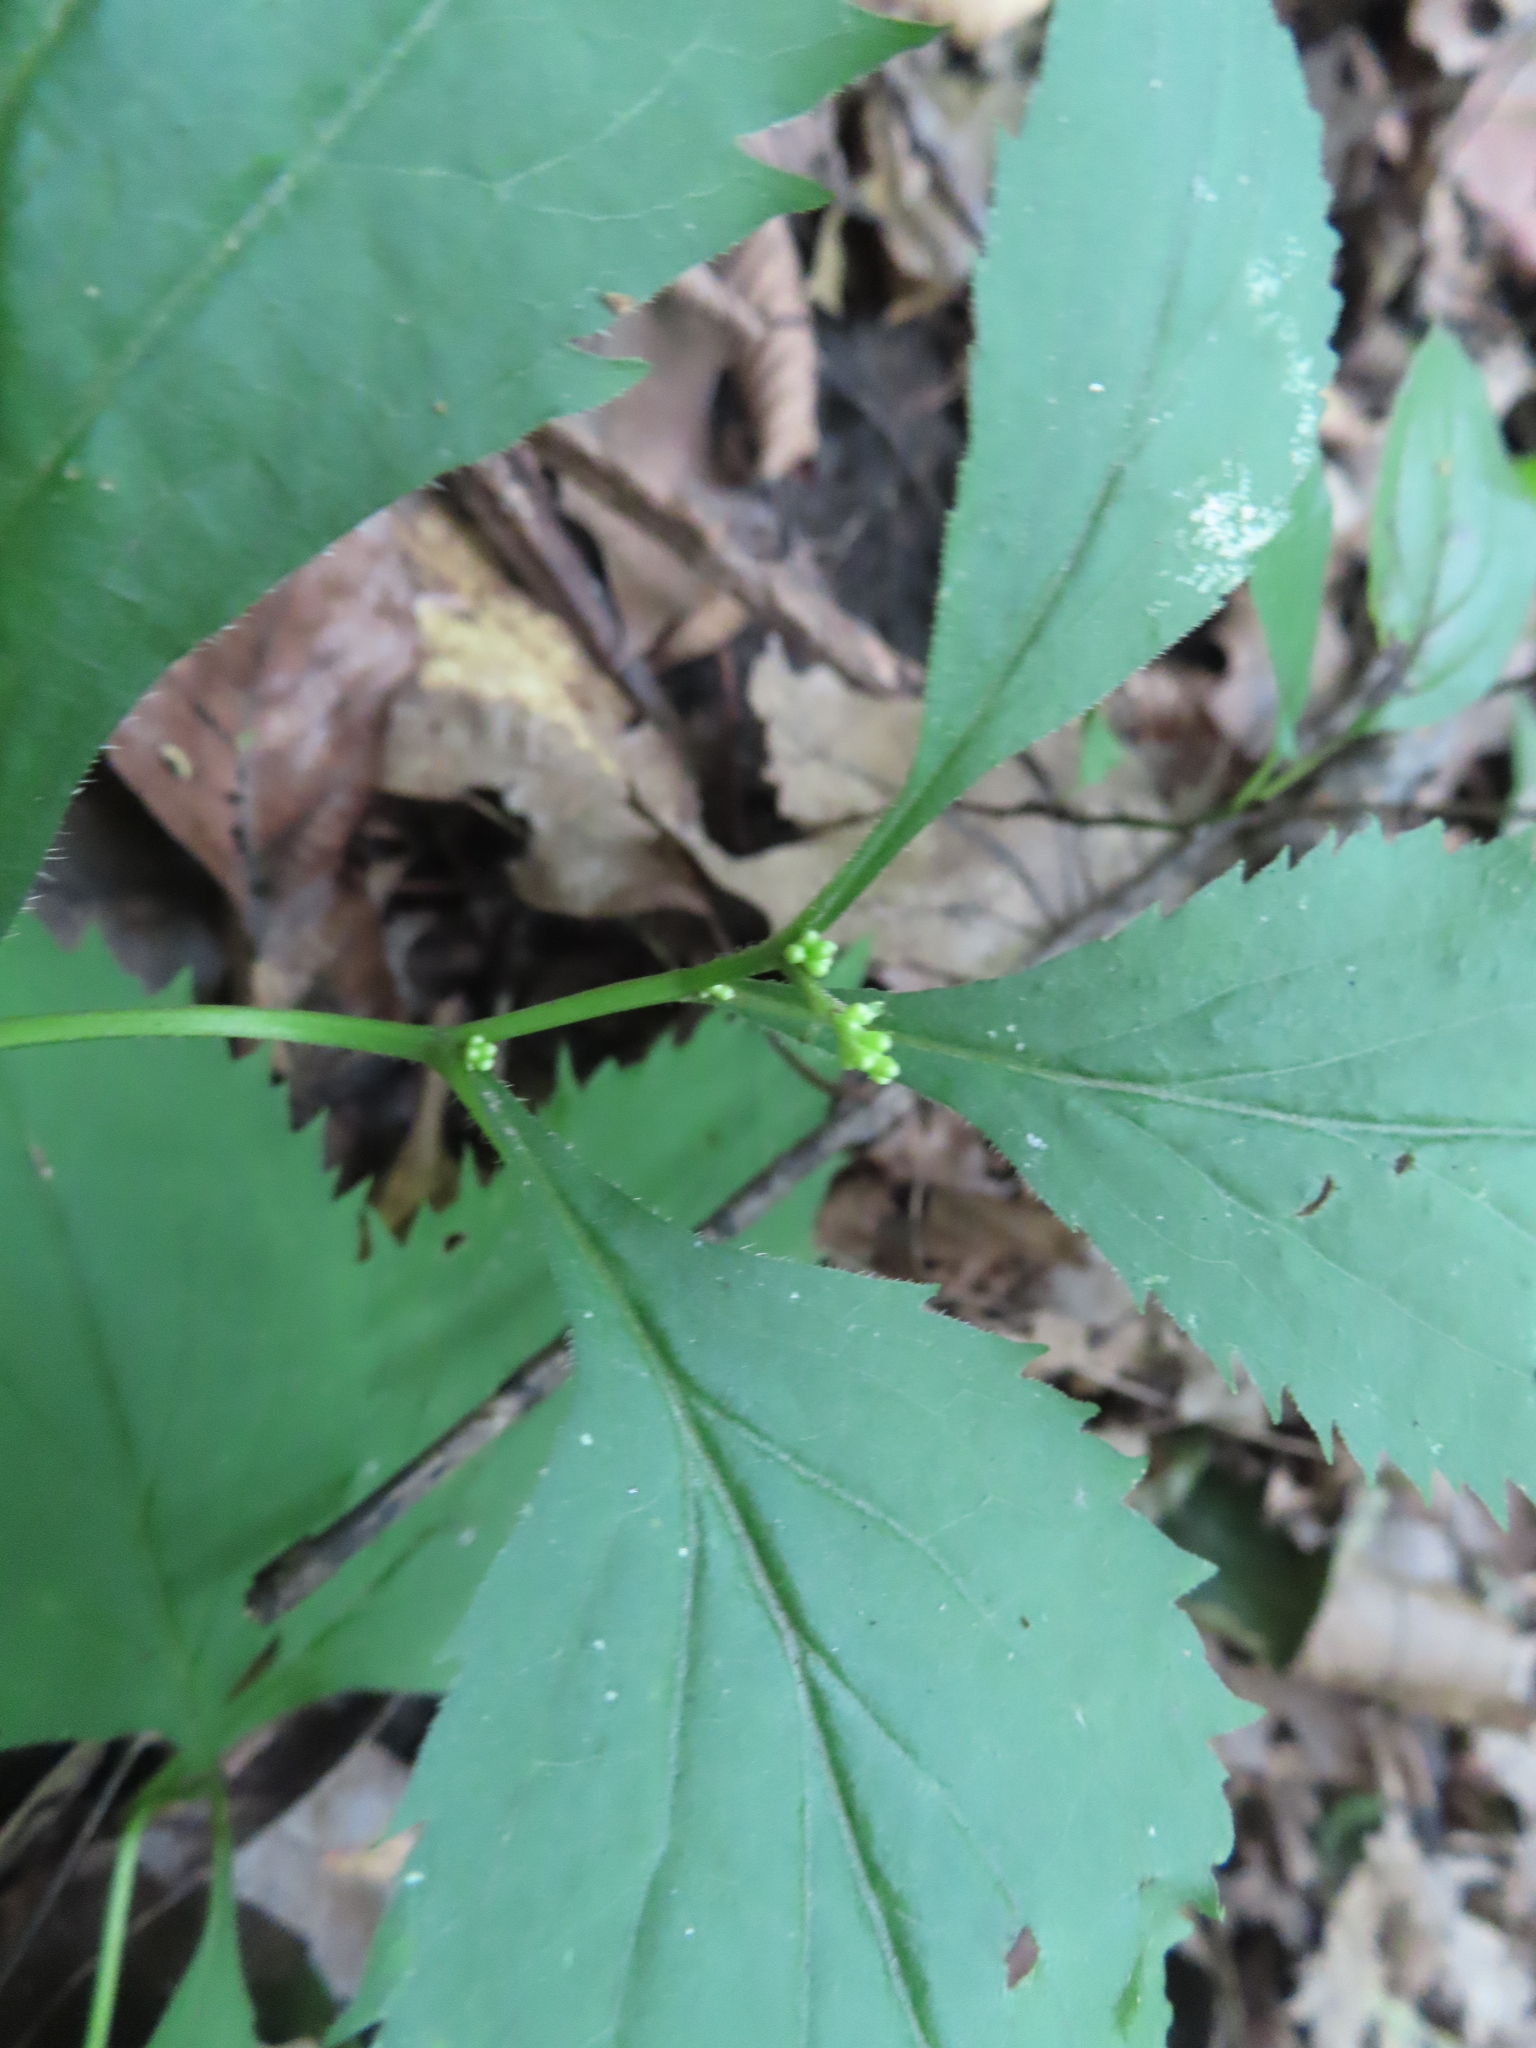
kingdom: Plantae
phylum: Tracheophyta
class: Magnoliopsida
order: Asterales
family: Asteraceae
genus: Solidago
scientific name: Solidago flexicaulis
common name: Zig-zag goldenrod
